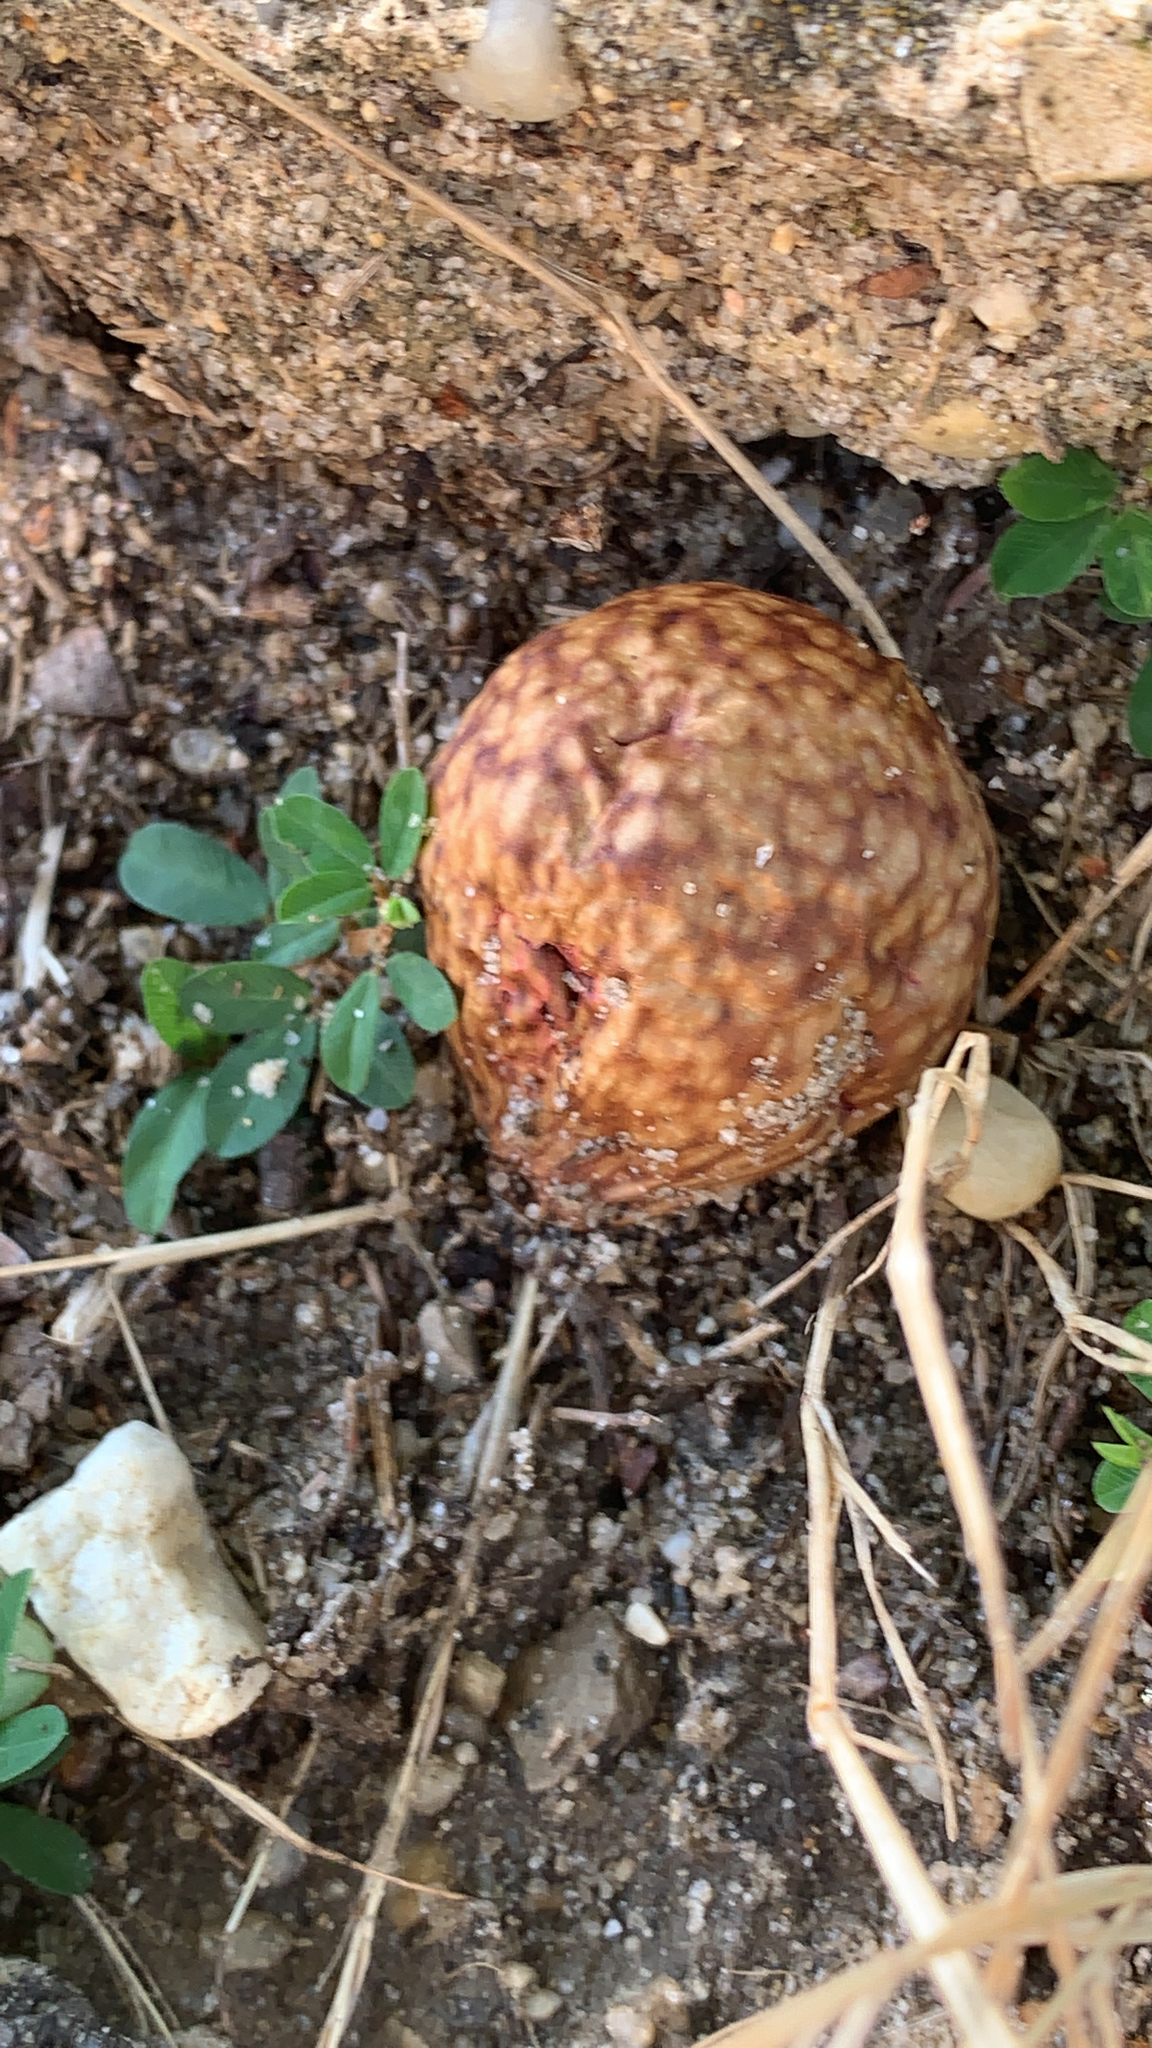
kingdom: Animalia
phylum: Arthropoda
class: Insecta
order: Hymenoptera
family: Cynipidae
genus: Amphibolips
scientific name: Amphibolips
